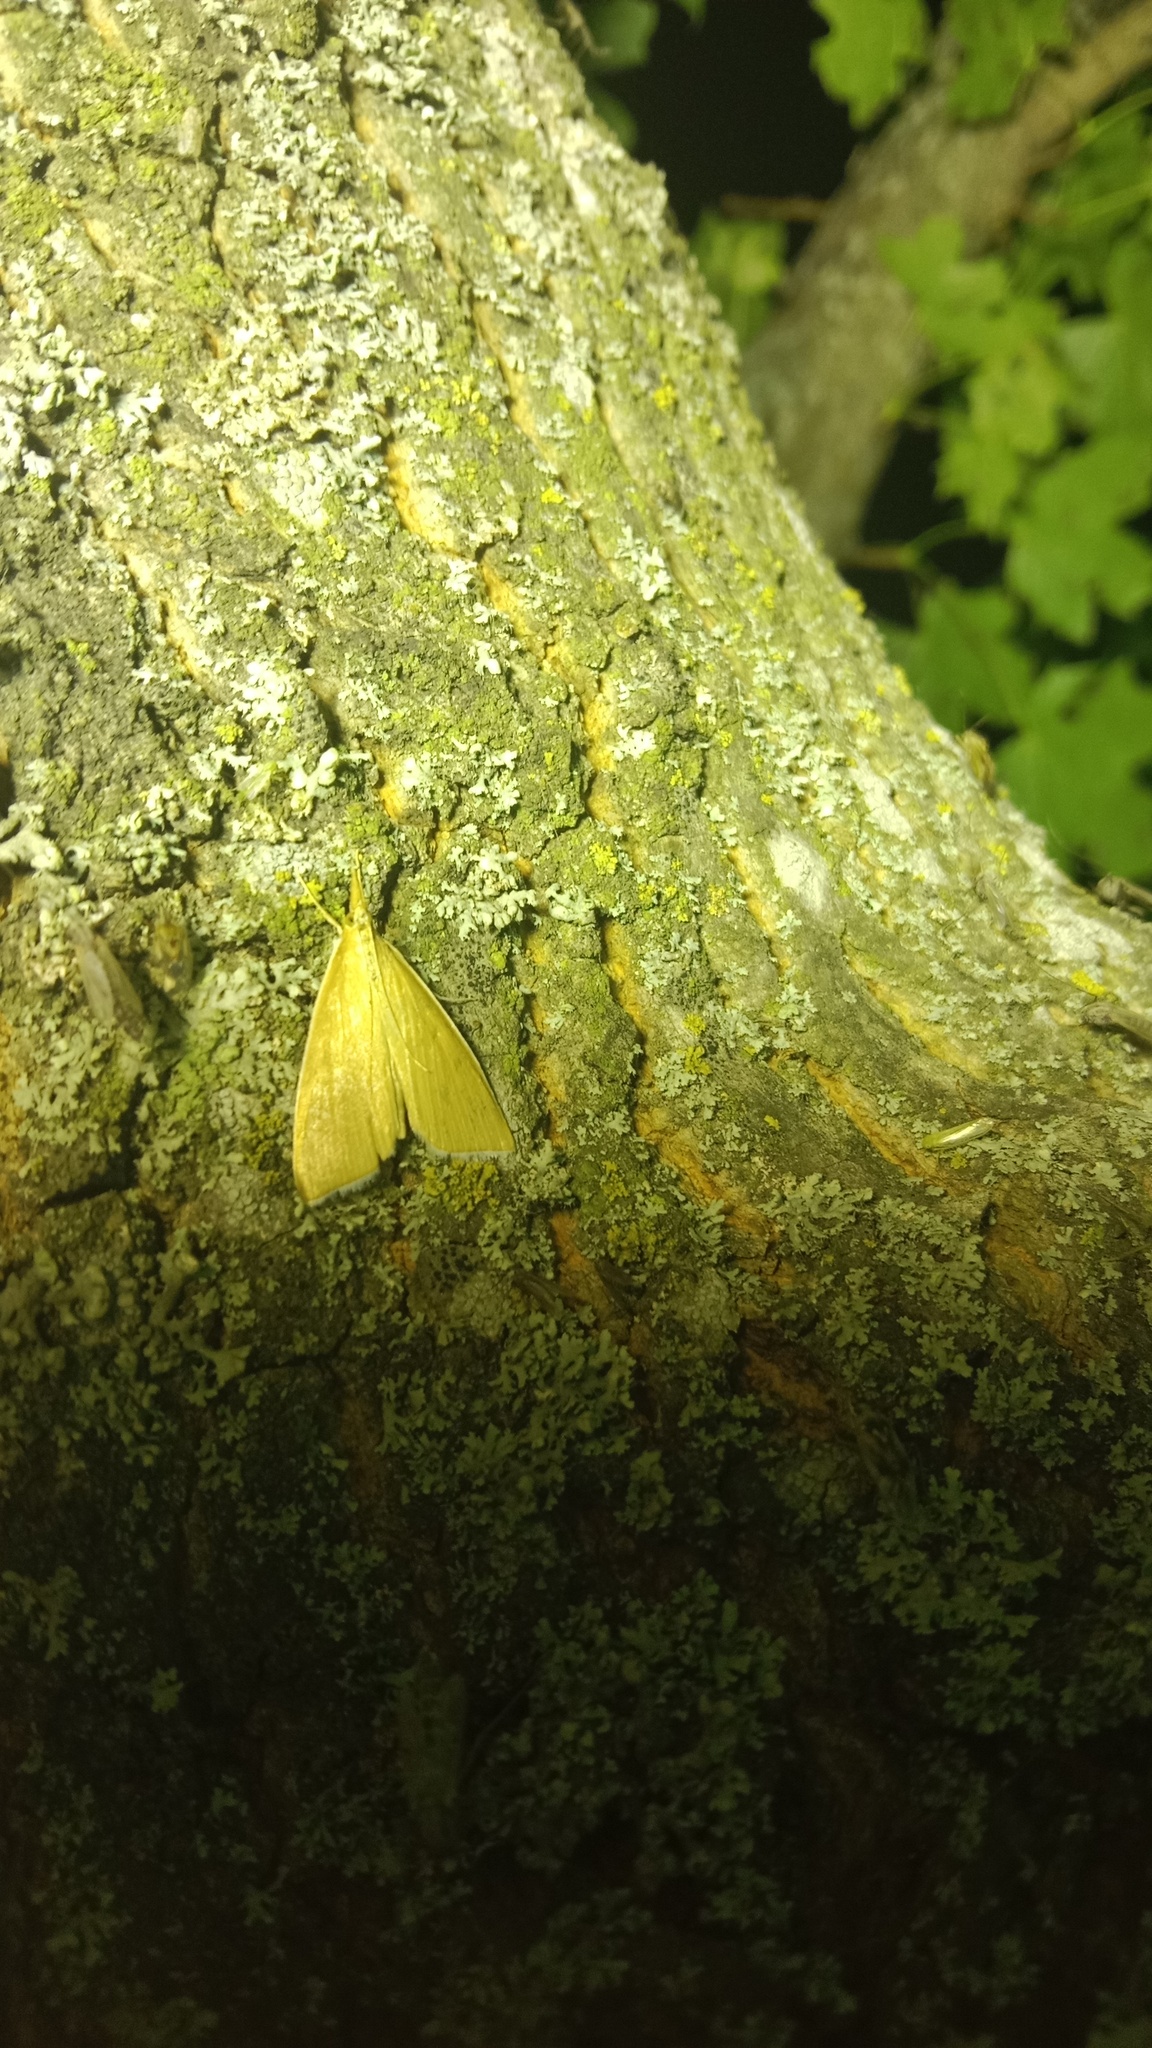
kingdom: Animalia
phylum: Arthropoda
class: Insecta
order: Lepidoptera
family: Crambidae
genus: Calamochrous
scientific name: Calamochrous Sclerocona acutella
